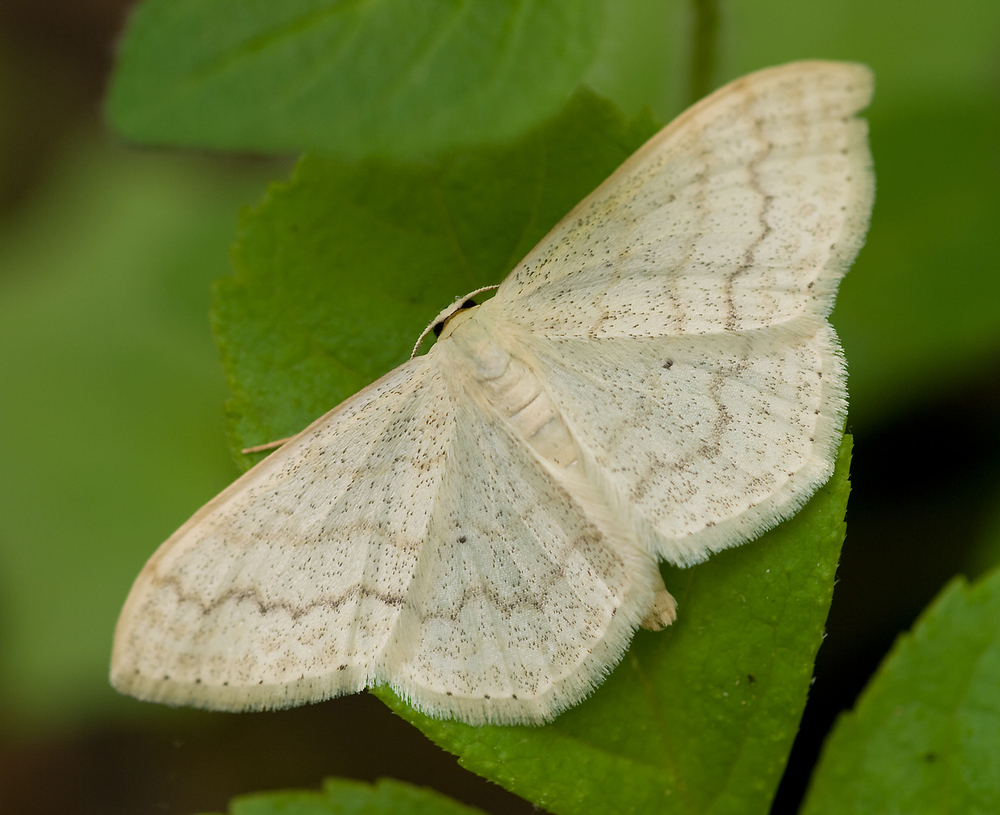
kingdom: Animalia
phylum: Arthropoda
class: Insecta
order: Lepidoptera
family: Geometridae
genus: Scopula
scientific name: Scopula floslactata
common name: Cream wave
